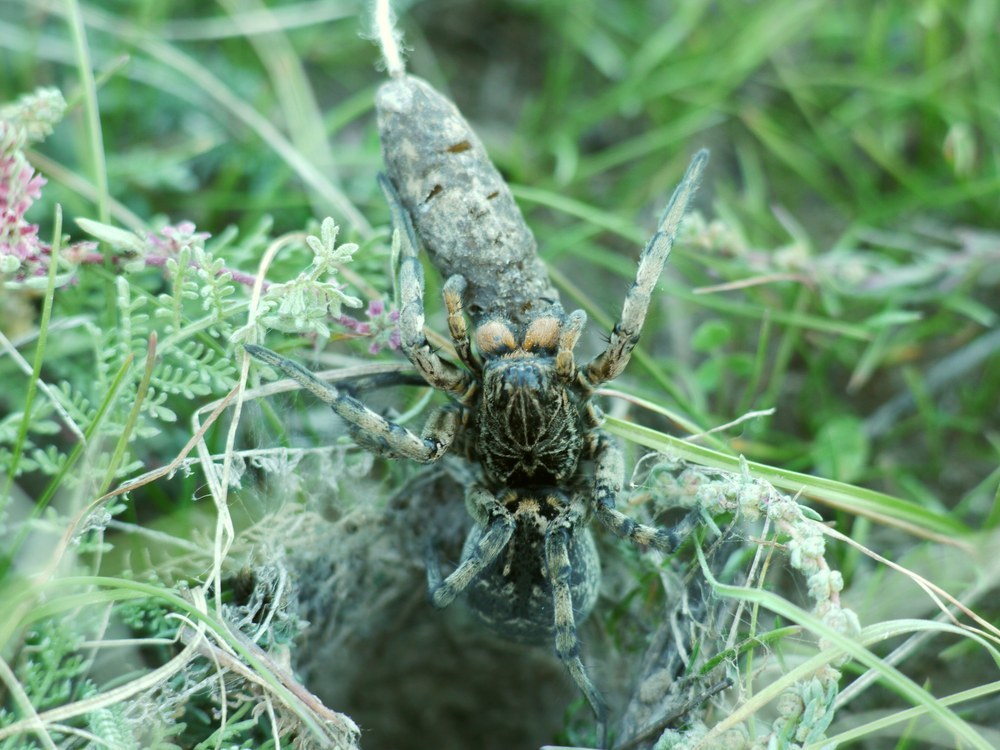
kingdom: Animalia
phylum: Arthropoda
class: Arachnida
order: Araneae
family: Lycosidae
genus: Geolycosa
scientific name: Geolycosa vultuosa
